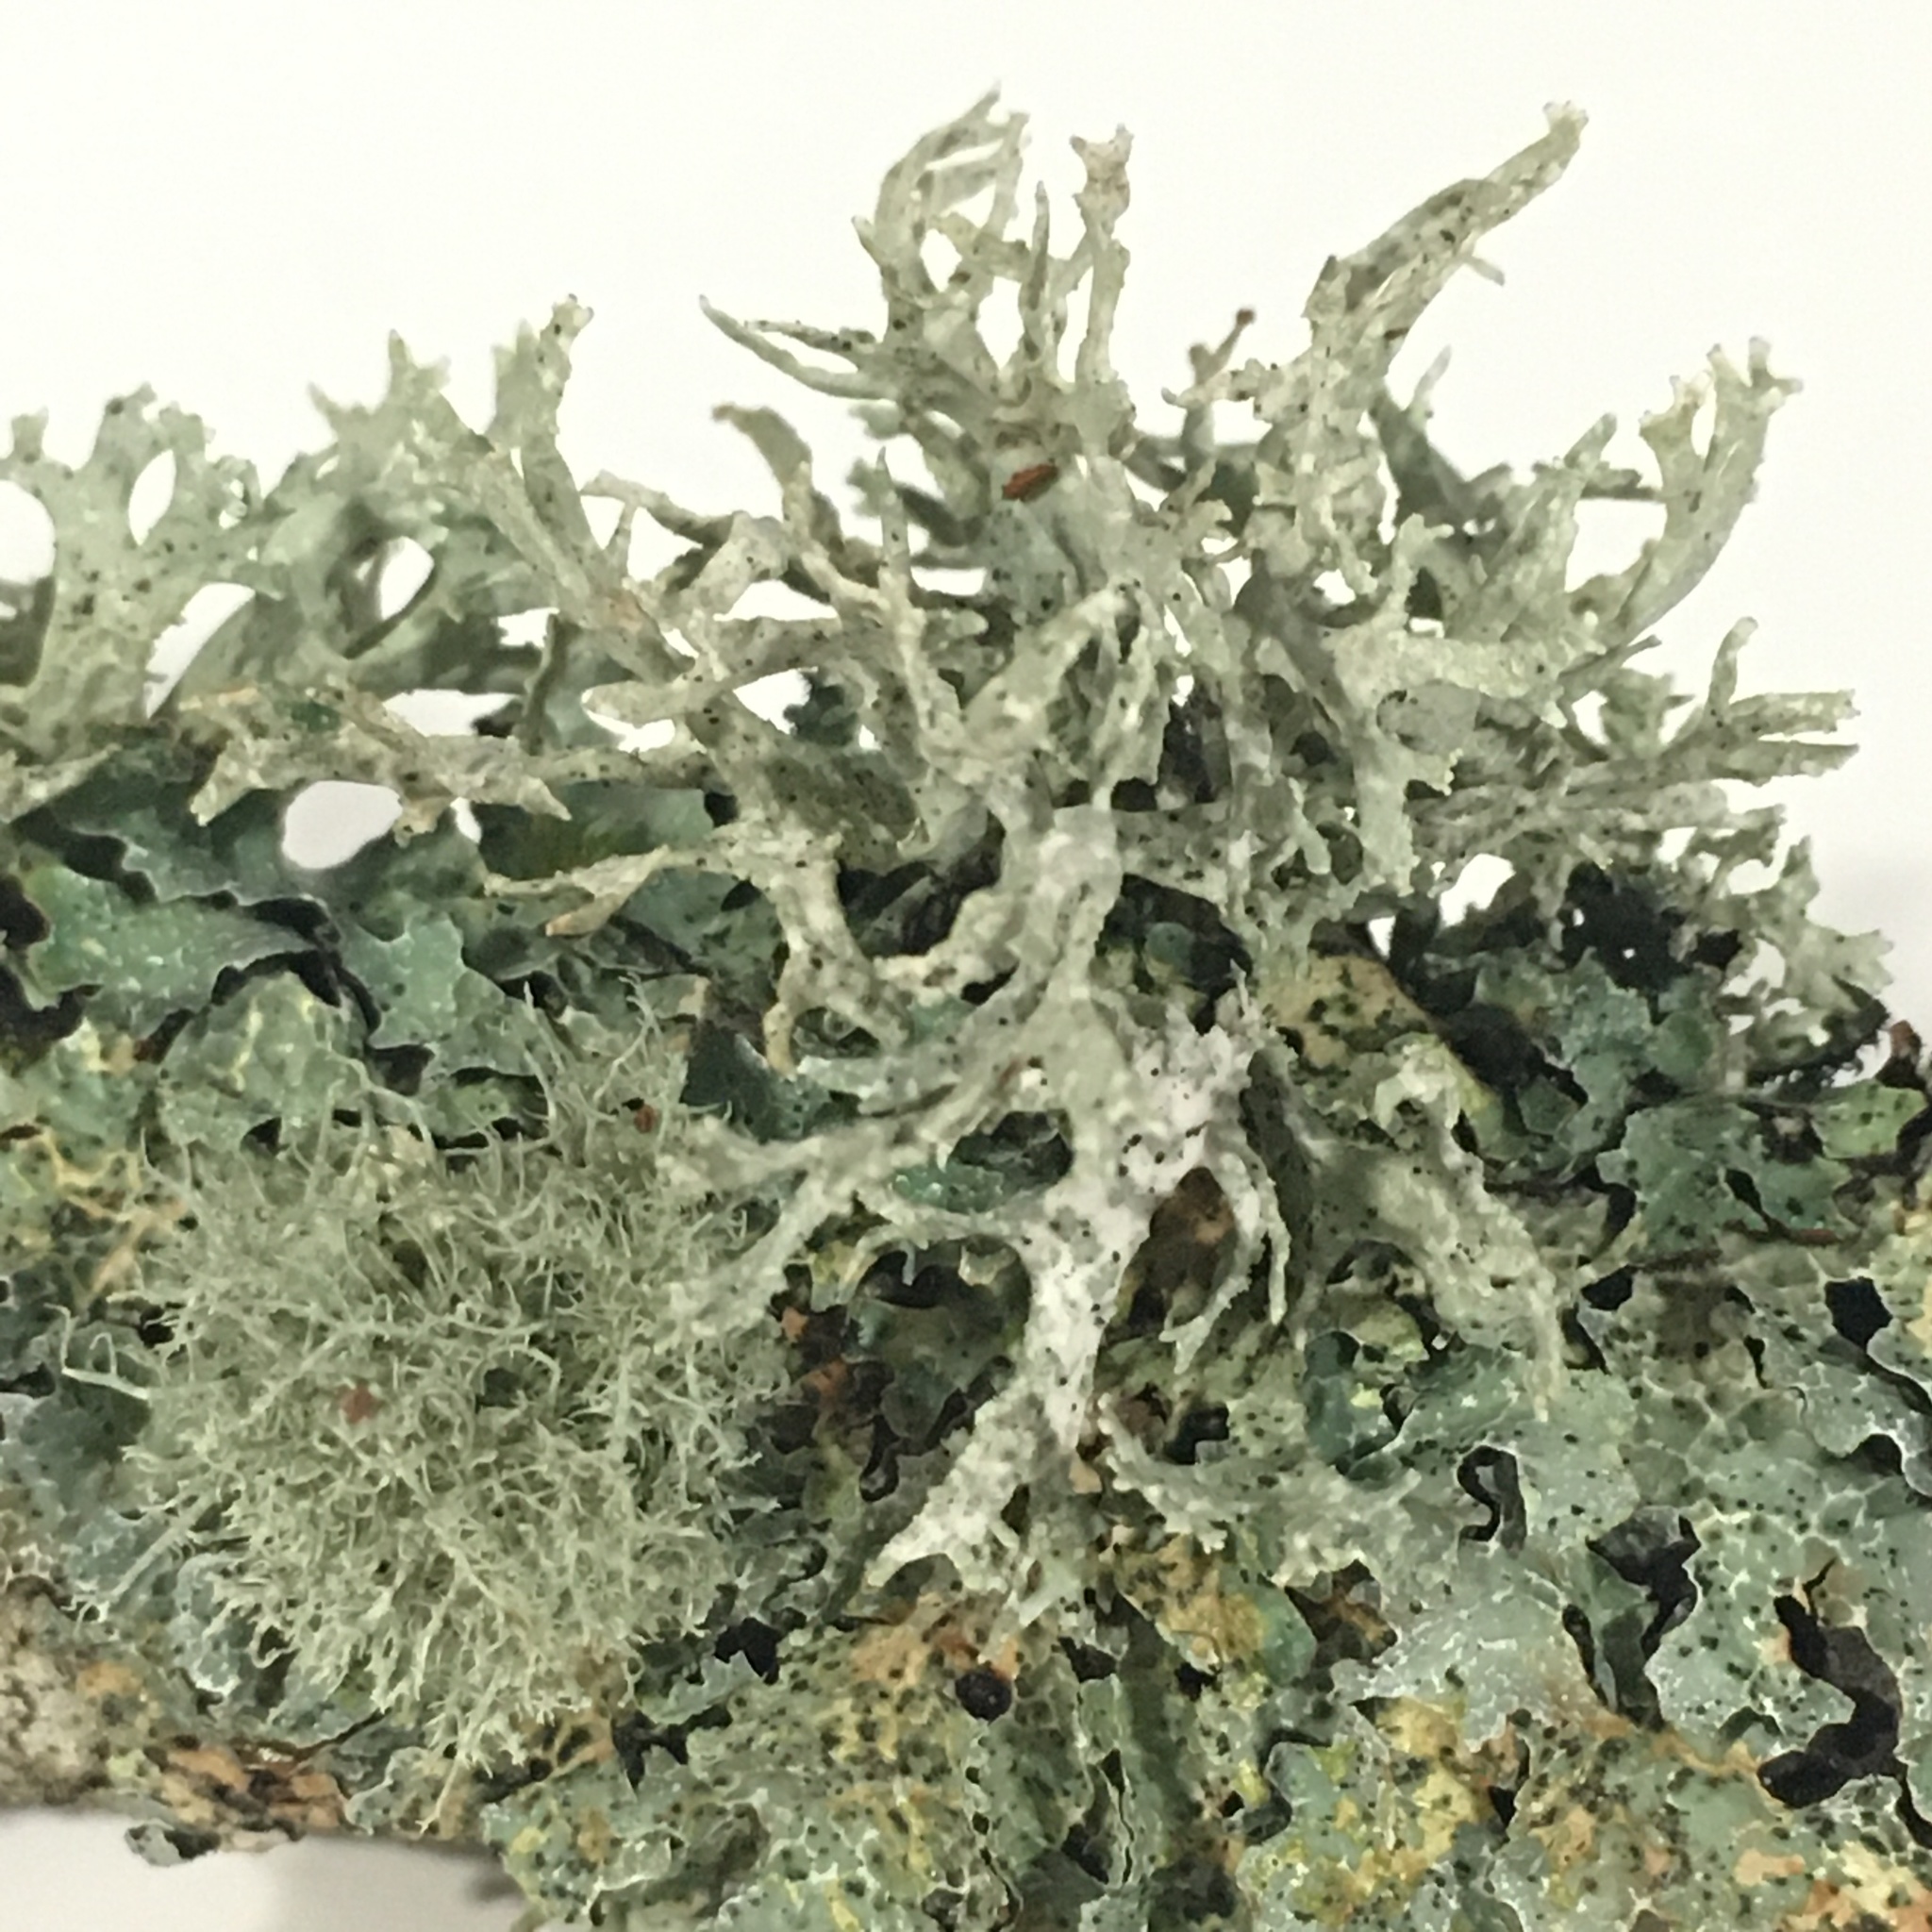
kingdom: Fungi
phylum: Ascomycota
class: Lecanoromycetes
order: Lecanorales
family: Parmeliaceae
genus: Evernia
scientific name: Evernia prunastri
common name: Oak moss
